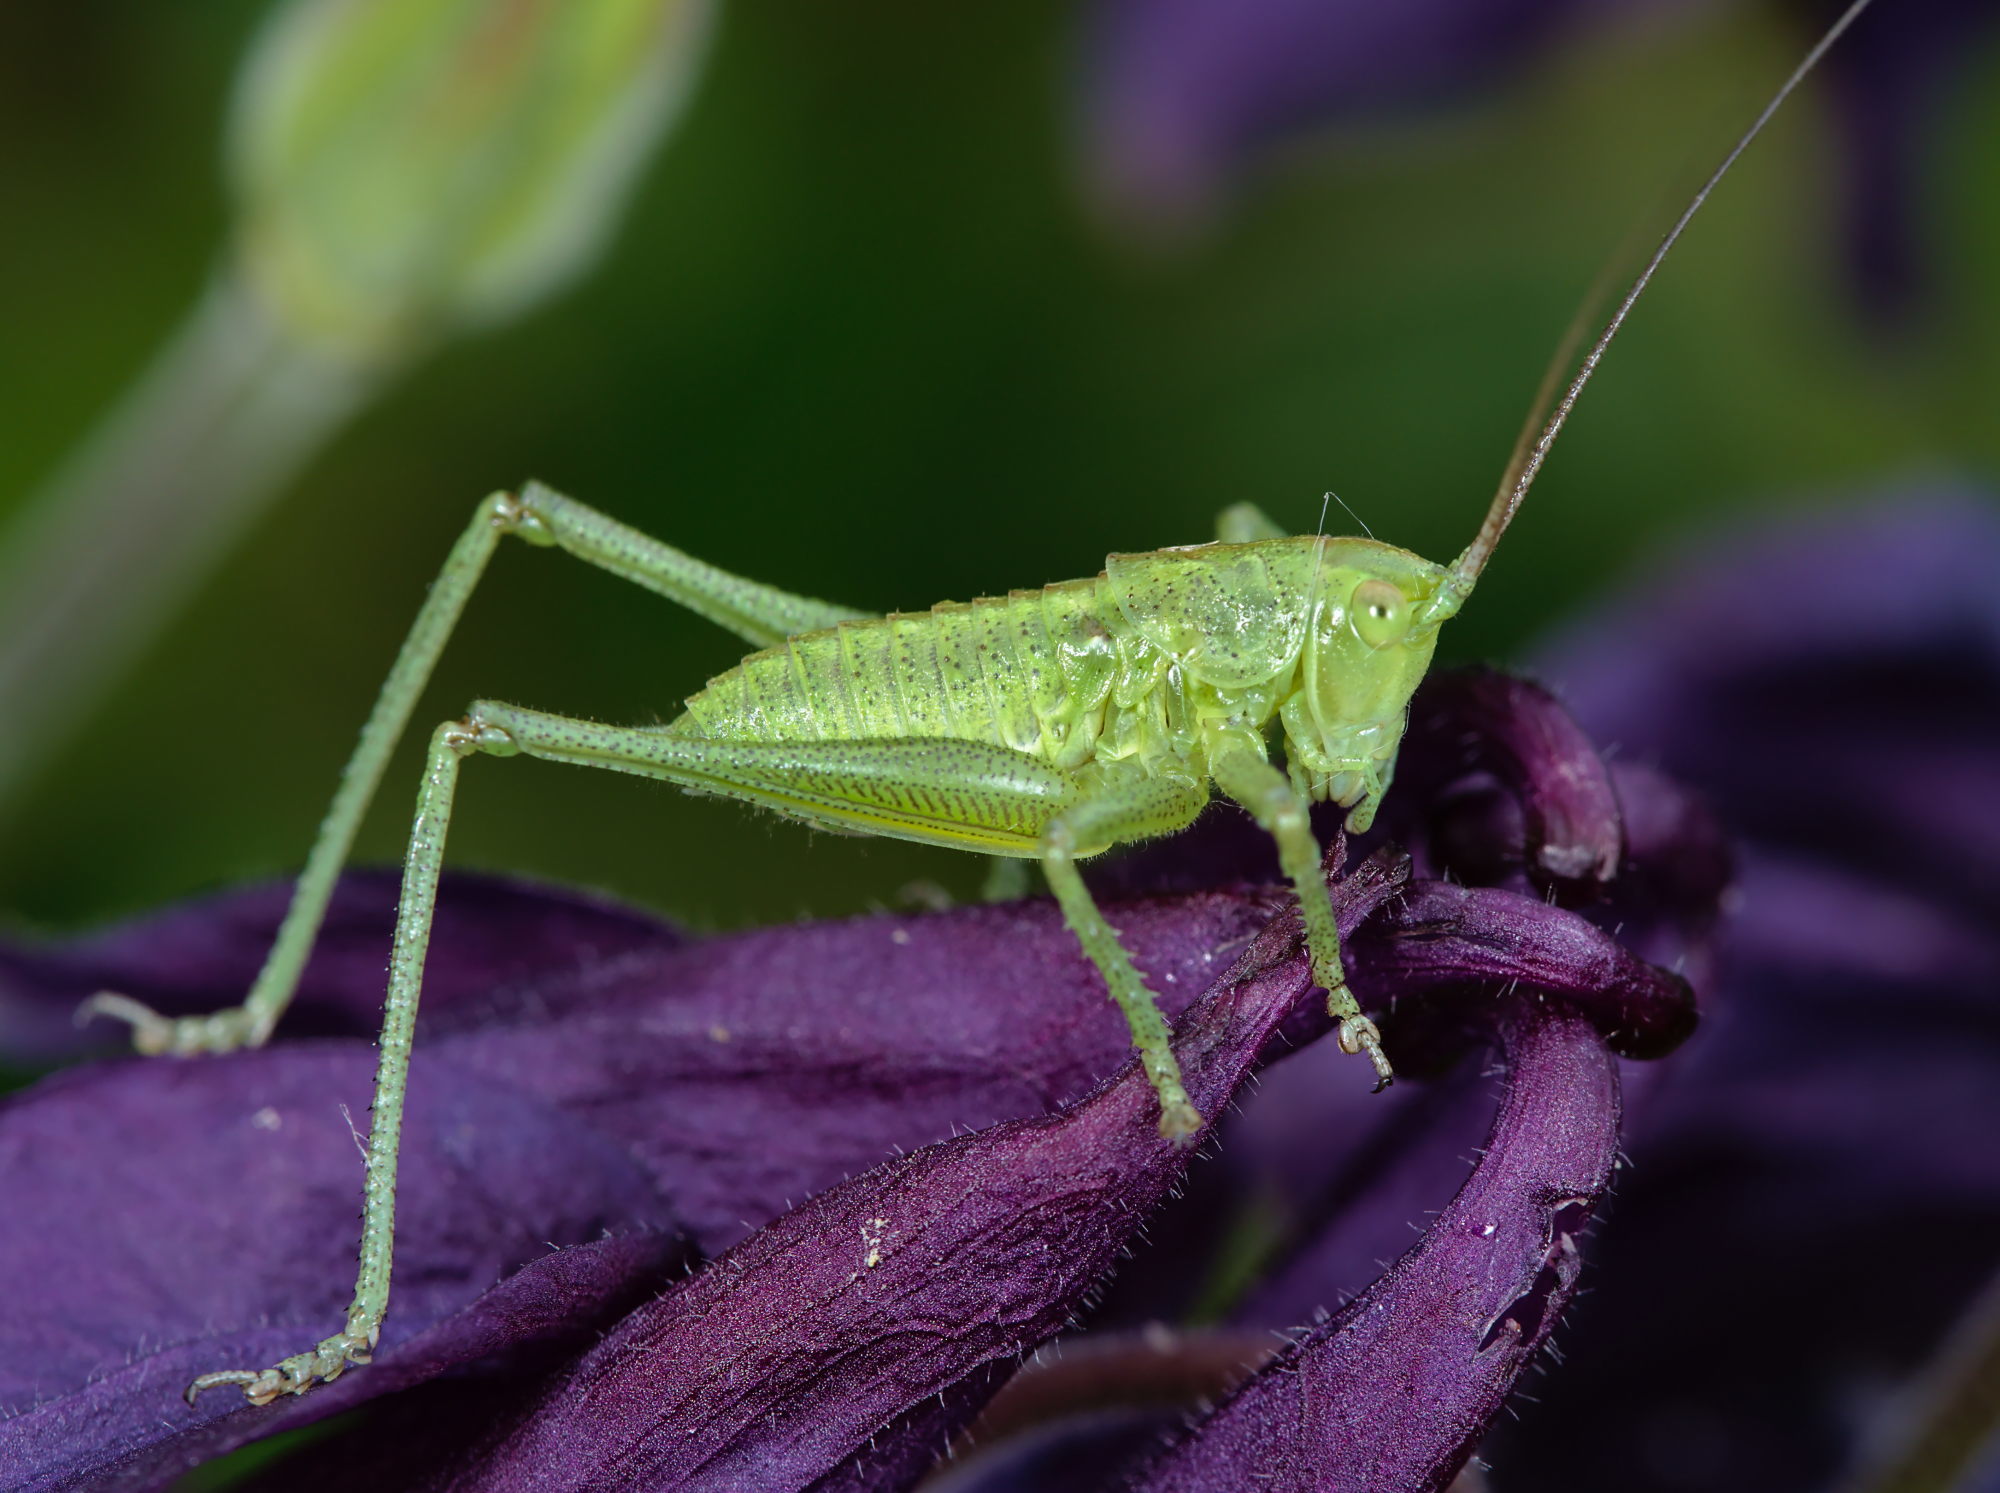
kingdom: Animalia
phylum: Arthropoda
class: Insecta
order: Orthoptera
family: Tettigoniidae
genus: Tettigonia
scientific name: Tettigonia viridissima
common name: Great green bush-cricket
